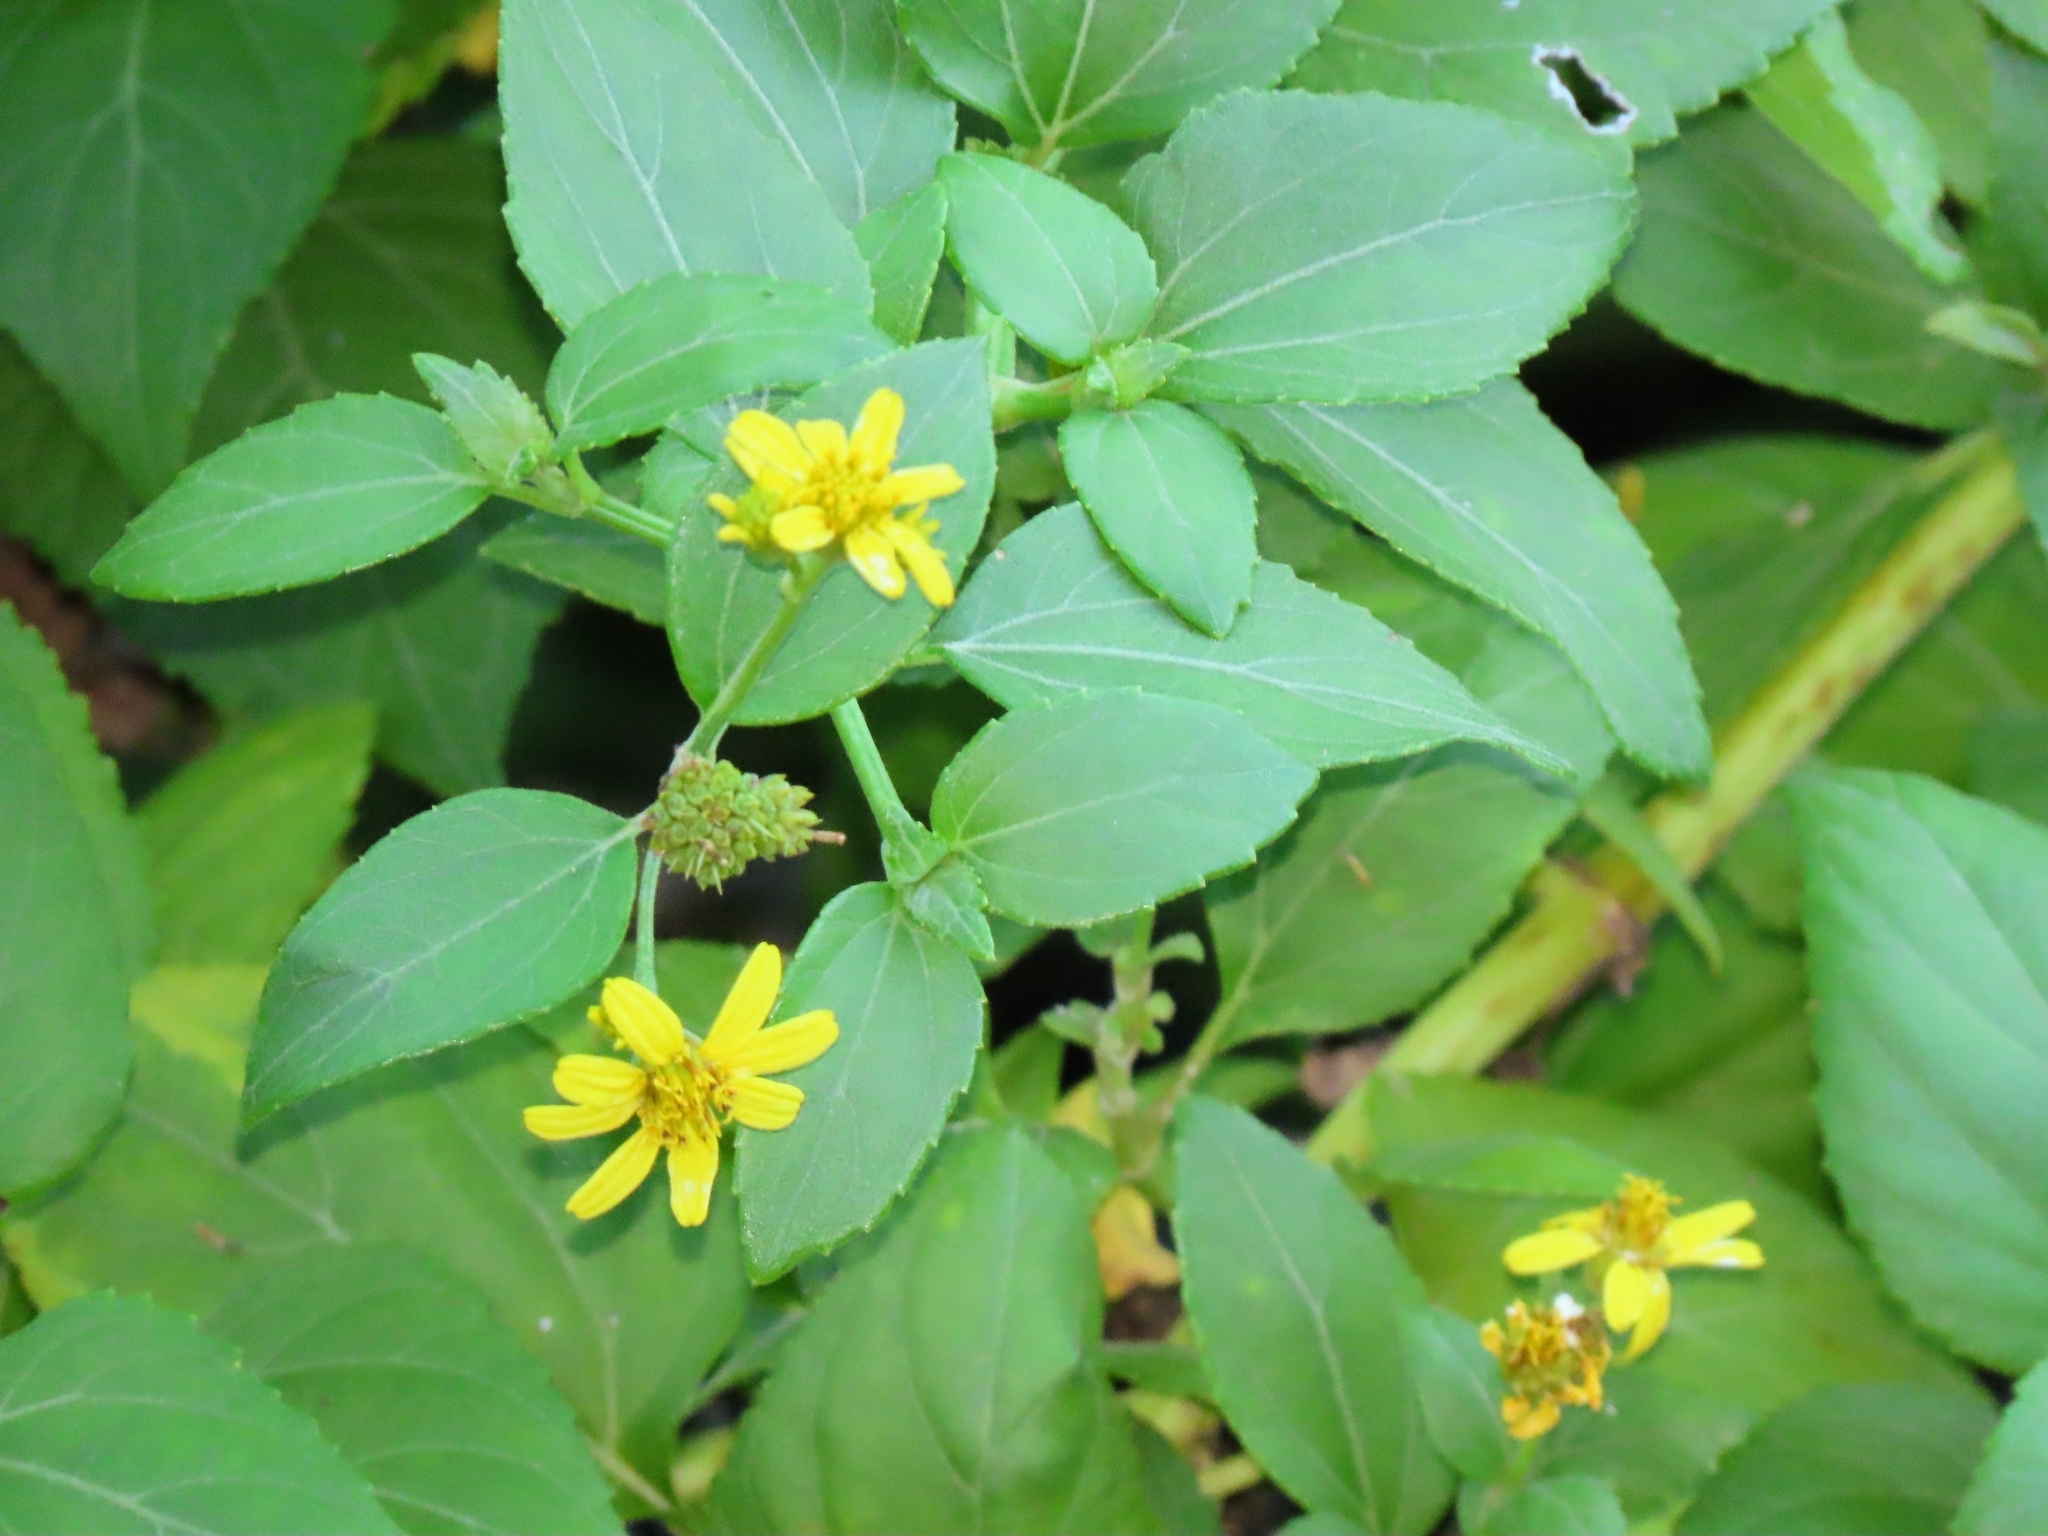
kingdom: Plantae
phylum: Tracheophyta
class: Magnoliopsida
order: Asterales
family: Asteraceae
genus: Wollastonia
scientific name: Wollastonia biflora
